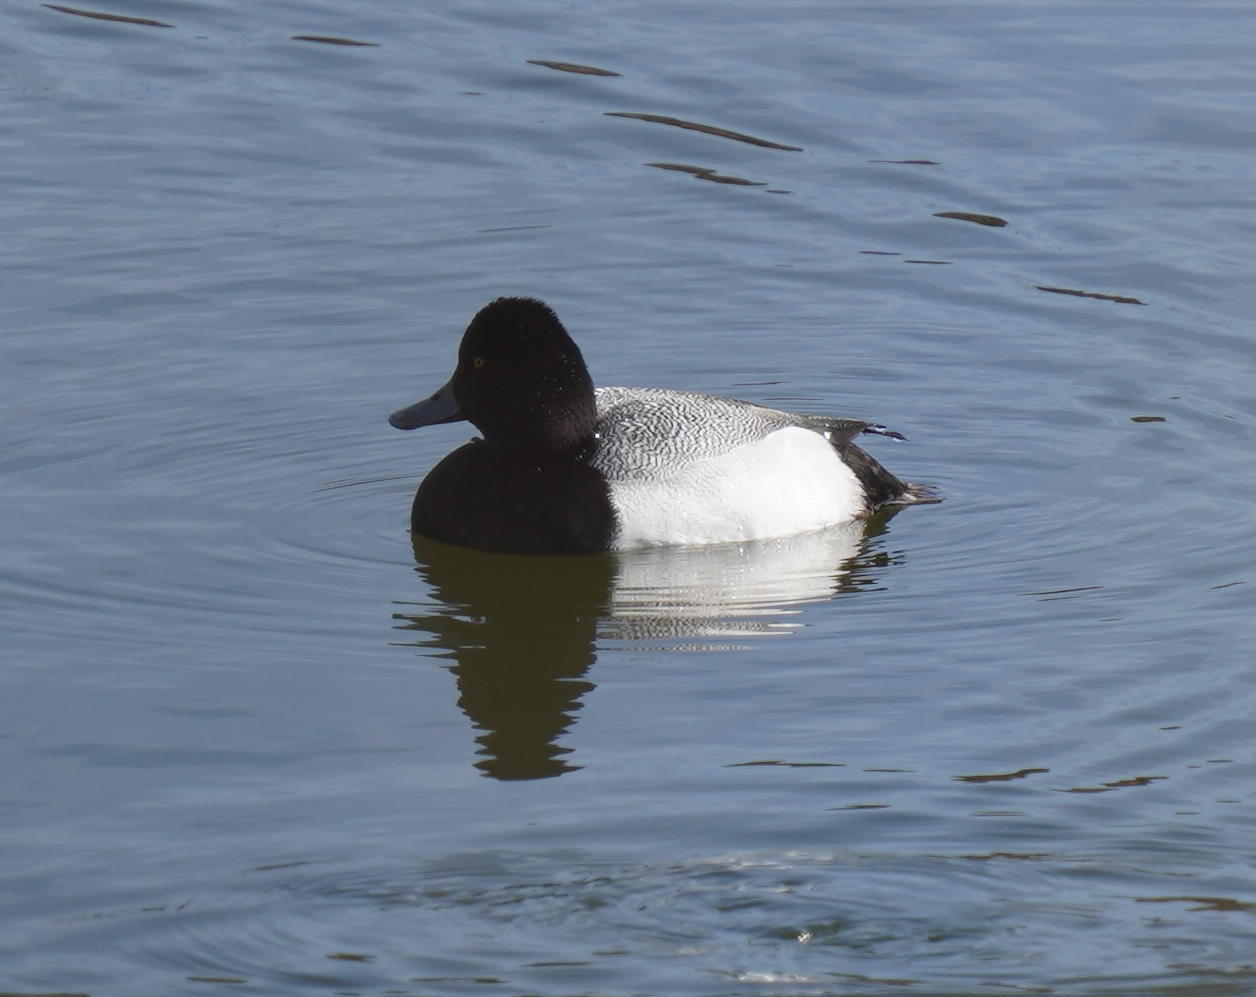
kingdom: Animalia
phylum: Chordata
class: Aves
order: Anseriformes
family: Anatidae
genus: Aythya
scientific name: Aythya affinis
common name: Lesser scaup
